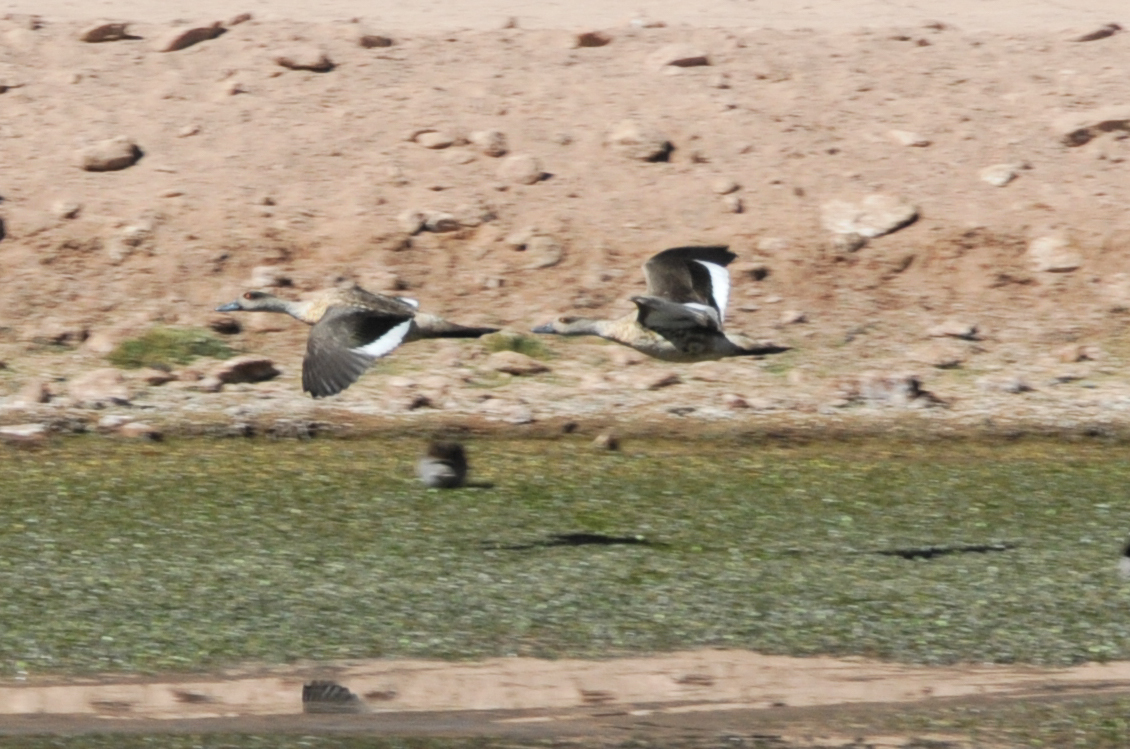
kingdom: Animalia
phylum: Chordata
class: Aves
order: Anseriformes
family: Anatidae
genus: Lophonetta
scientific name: Lophonetta specularioides
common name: Crested duck
